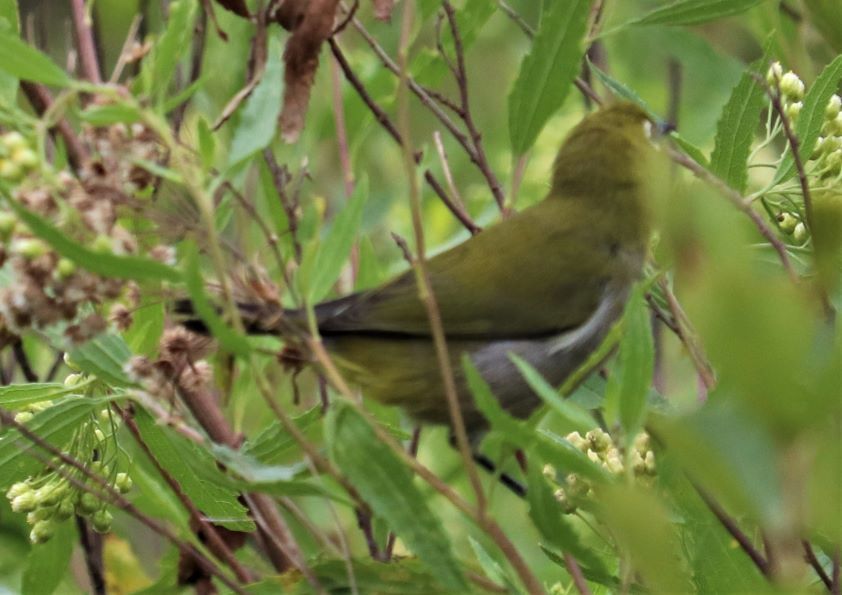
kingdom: Animalia
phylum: Chordata
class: Aves
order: Passeriformes
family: Zosteropidae
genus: Zosterops
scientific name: Zosterops virens
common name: Cape white-eye
